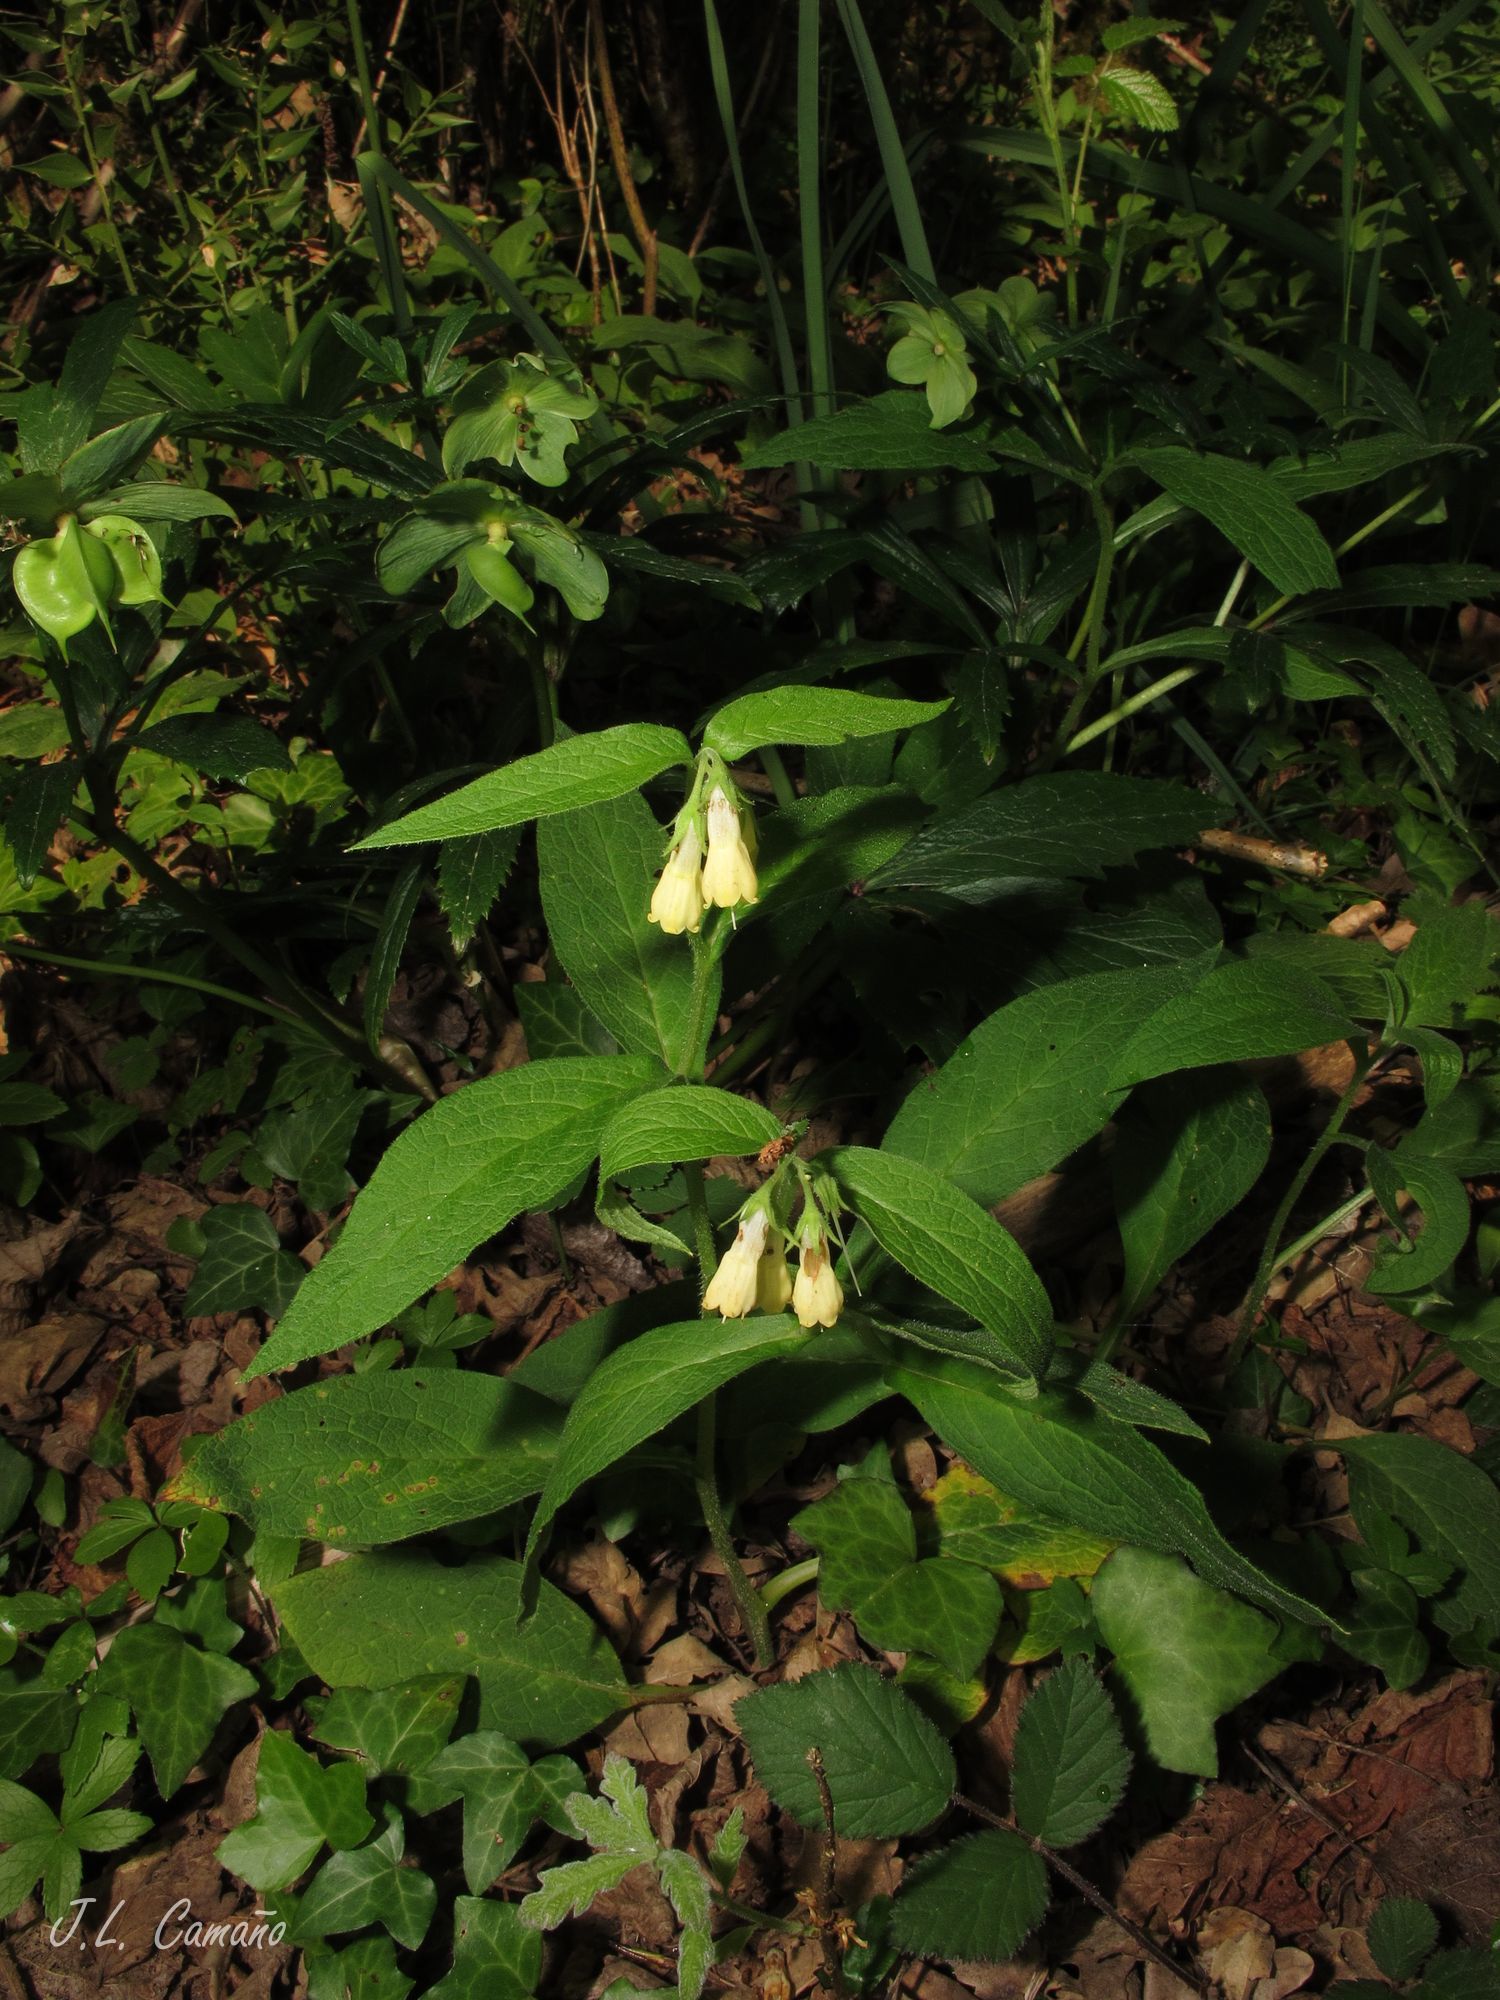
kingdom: Plantae
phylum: Tracheophyta
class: Magnoliopsida
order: Boraginales
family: Boraginaceae
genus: Symphytum
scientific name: Symphytum tuberosum
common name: Tuberous comfrey
